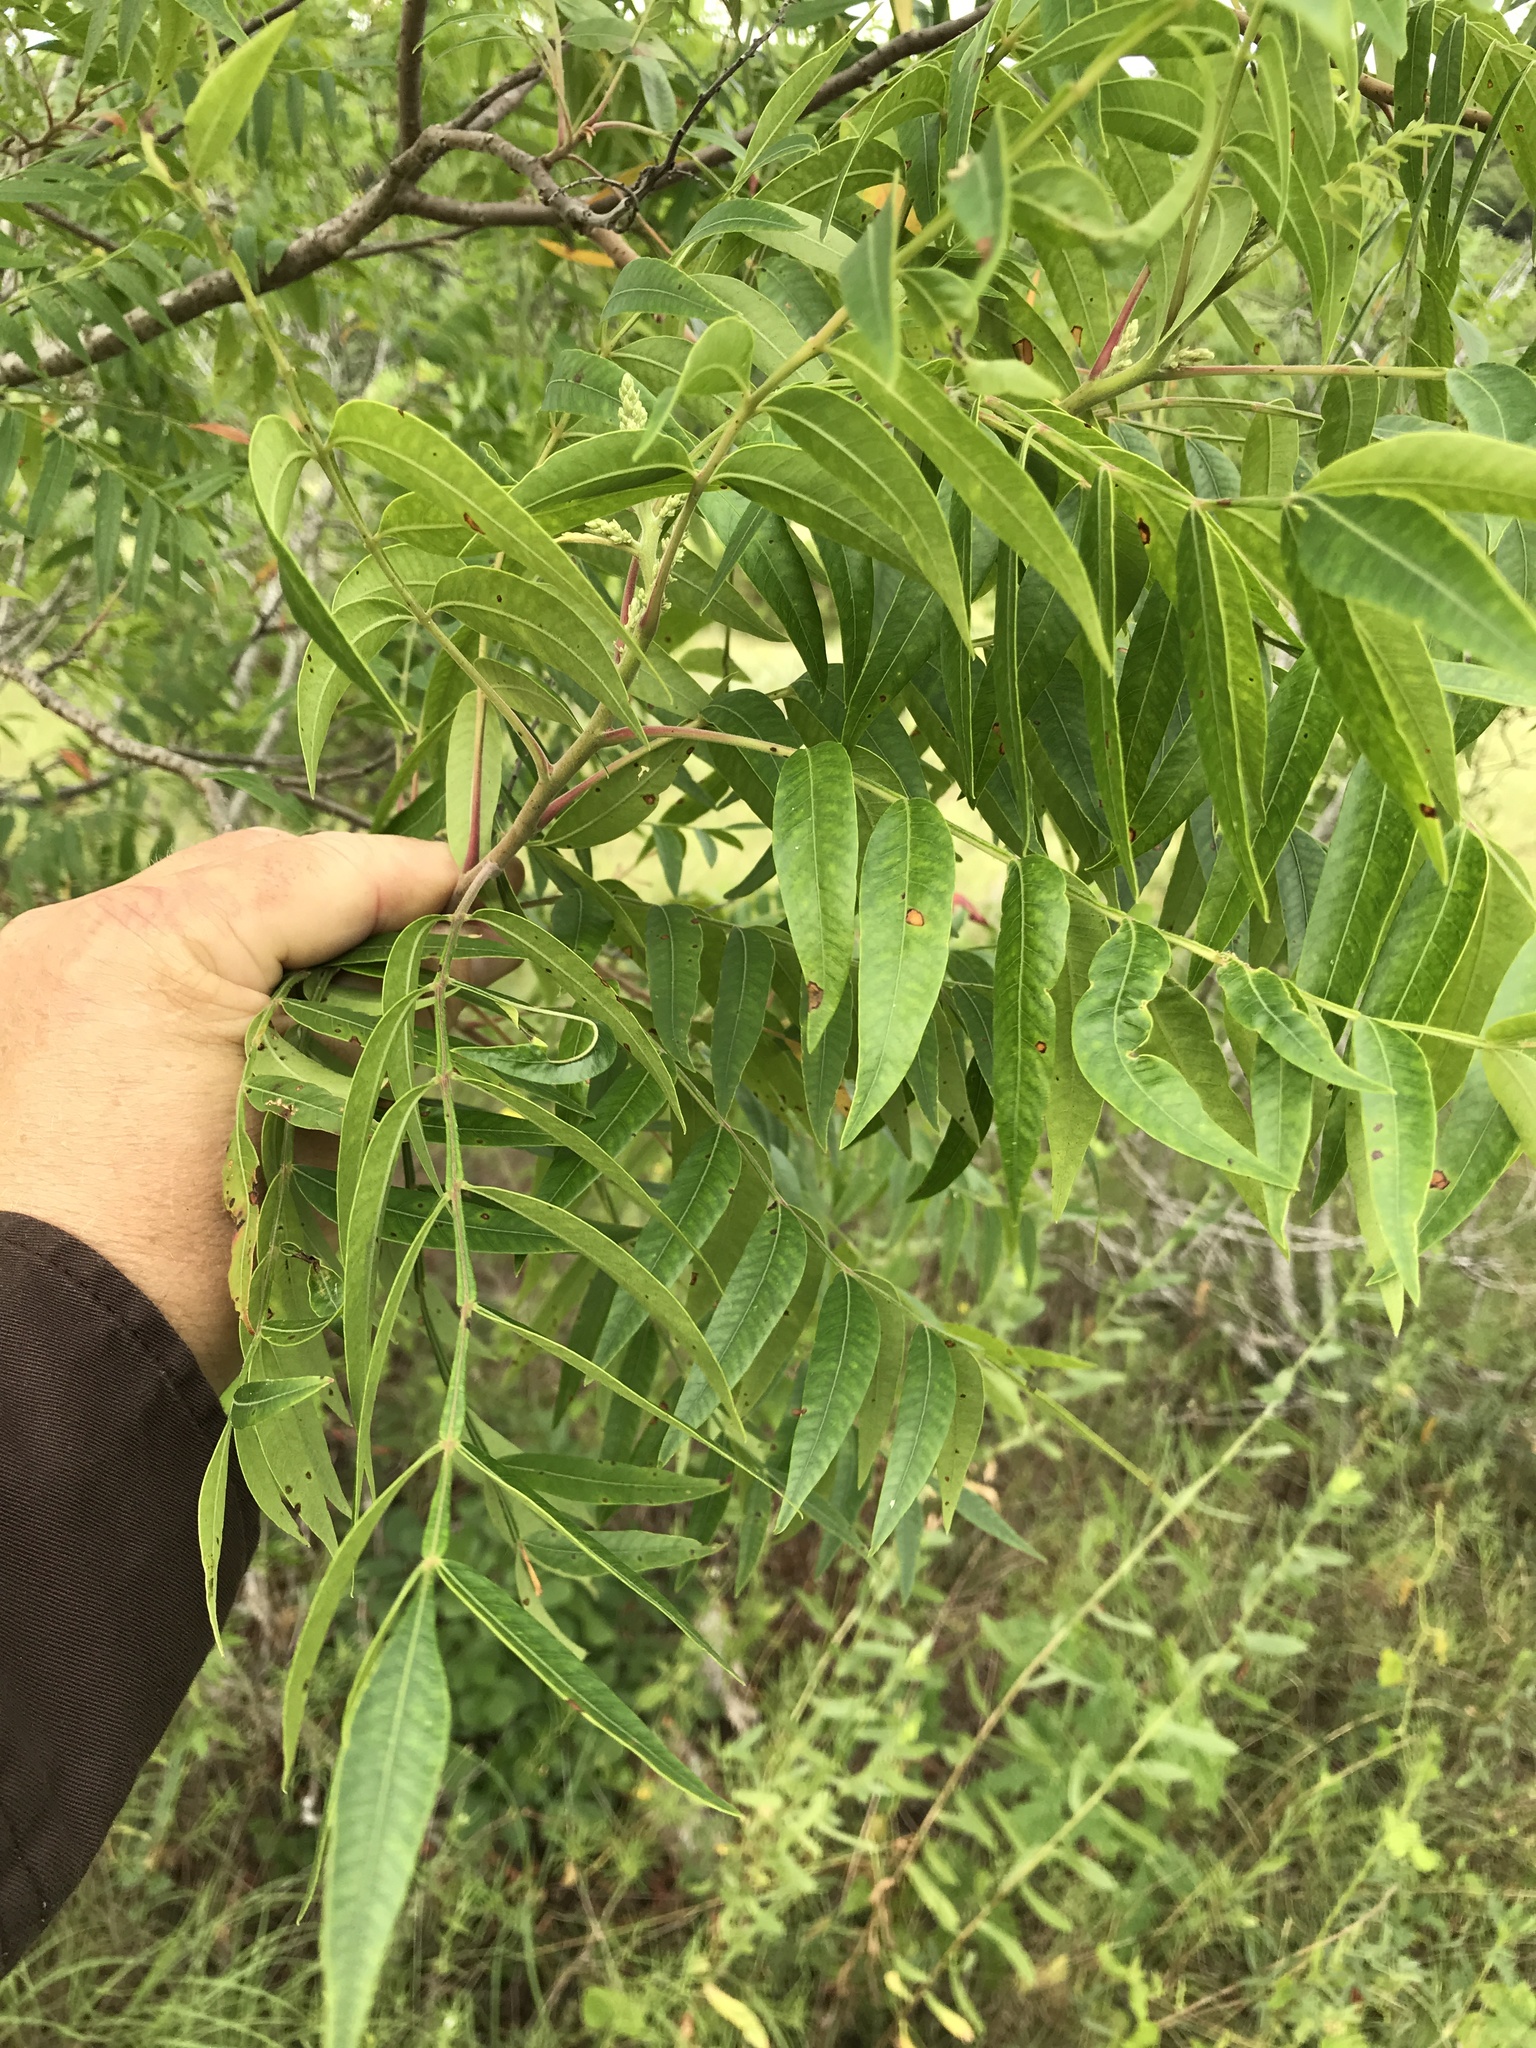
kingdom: Plantae
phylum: Tracheophyta
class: Magnoliopsida
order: Sapindales
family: Anacardiaceae
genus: Rhus
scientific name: Rhus lanceolata
